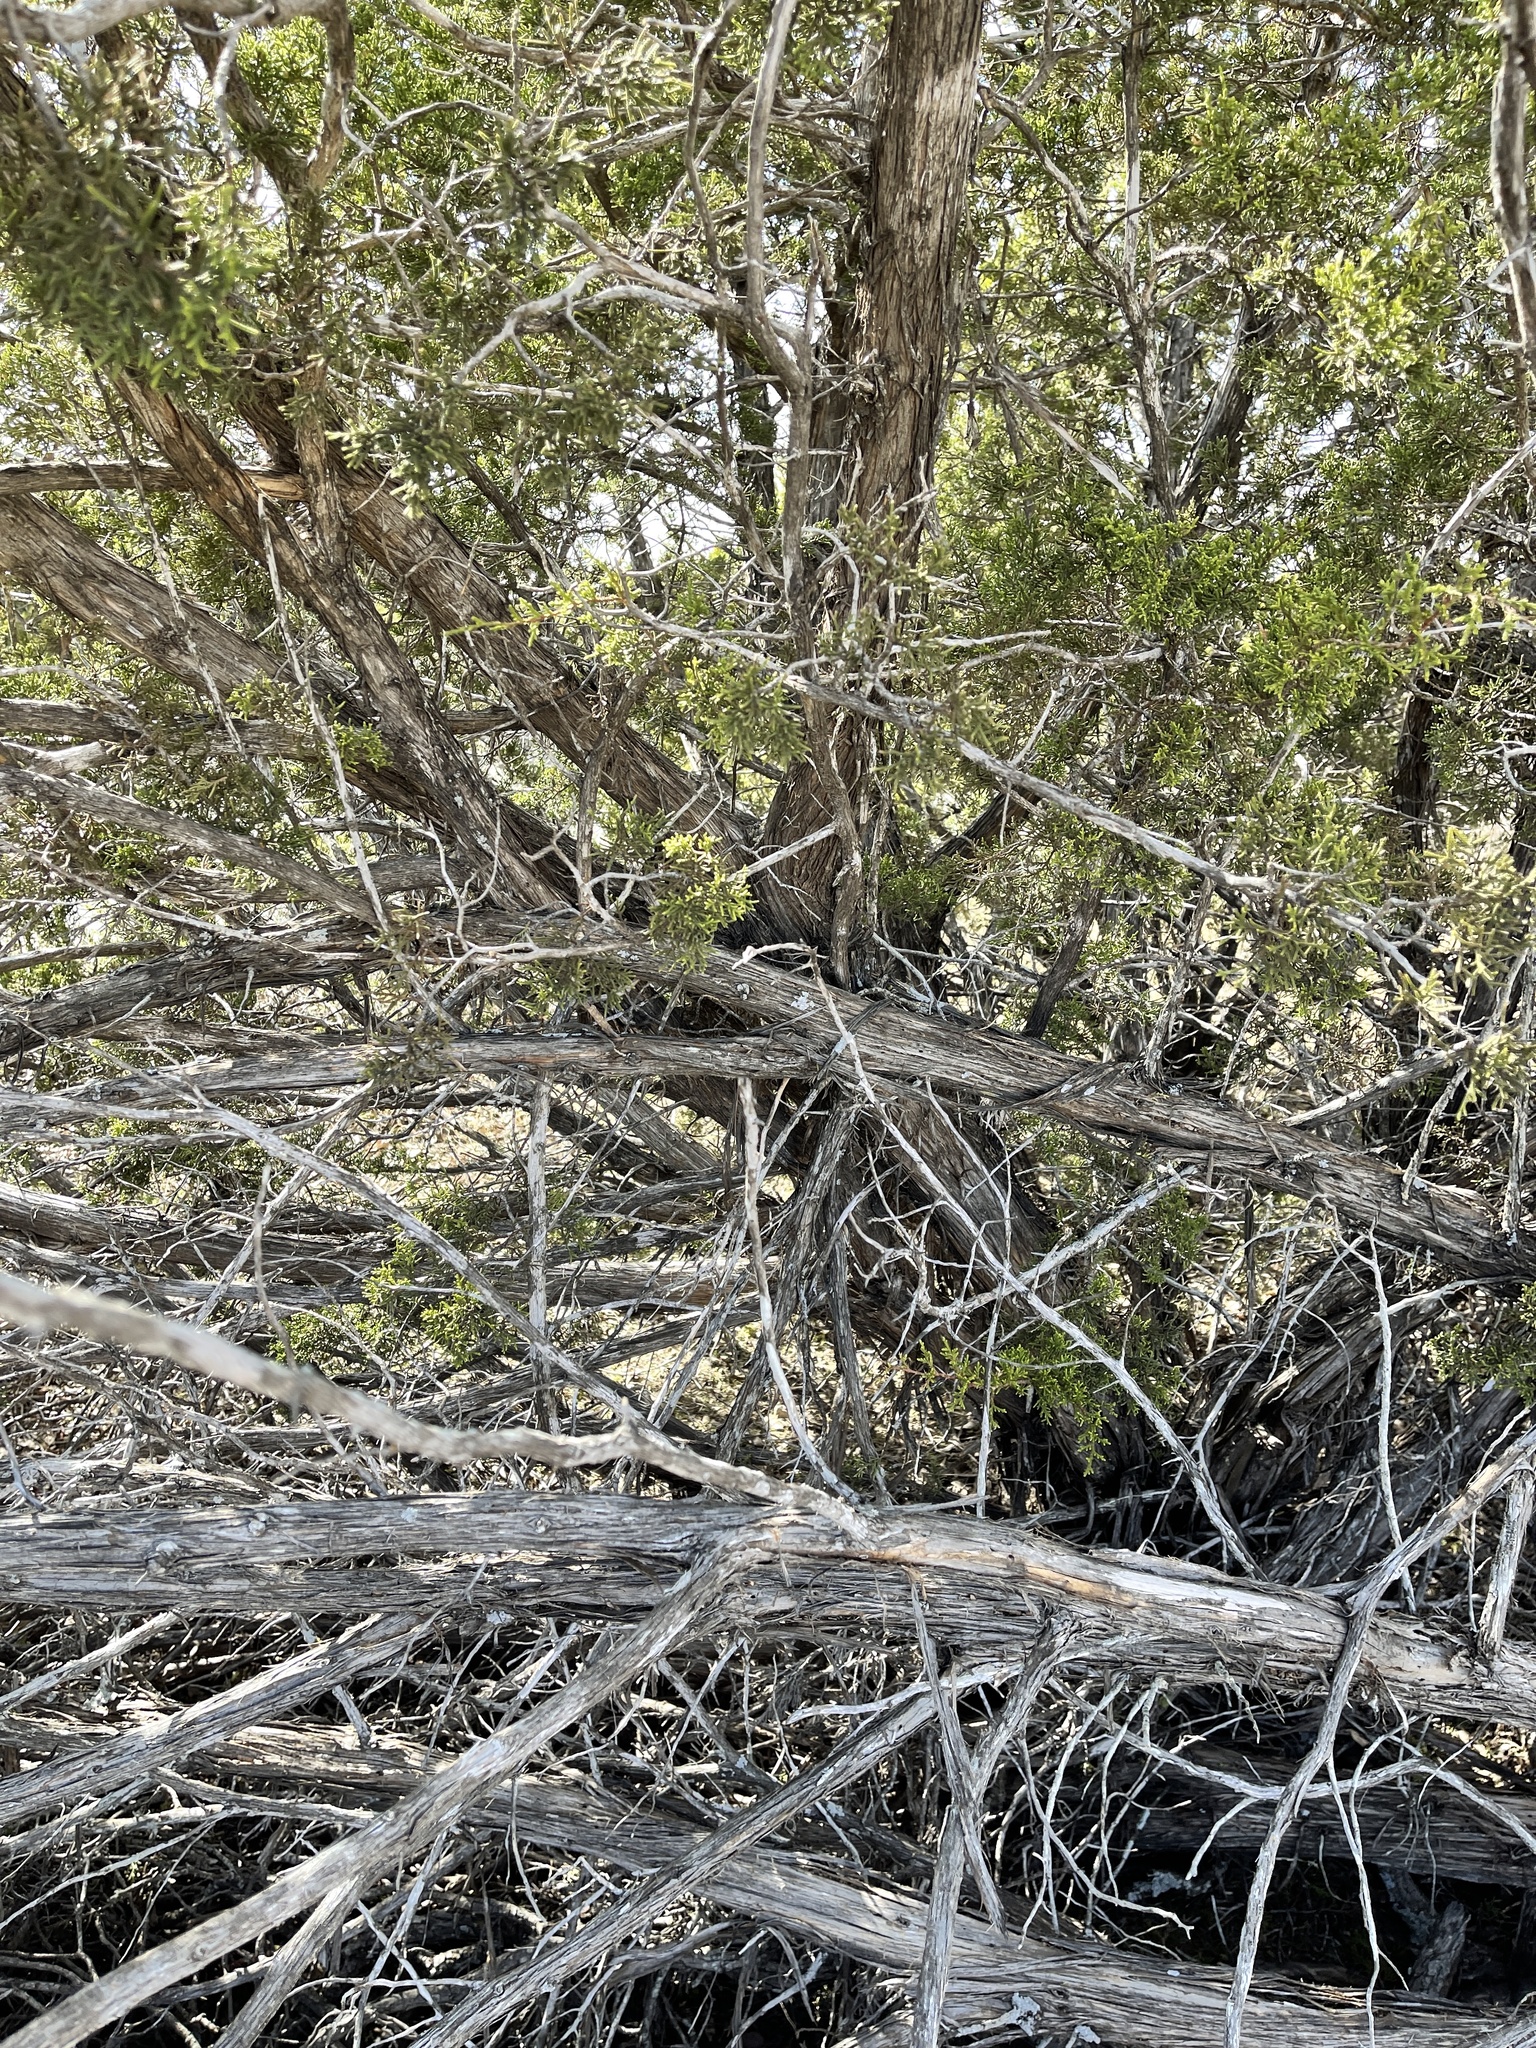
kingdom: Plantae
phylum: Tracheophyta
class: Pinopsida
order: Pinales
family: Cupressaceae
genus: Juniperus
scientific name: Juniperus ashei
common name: Mexican juniper
